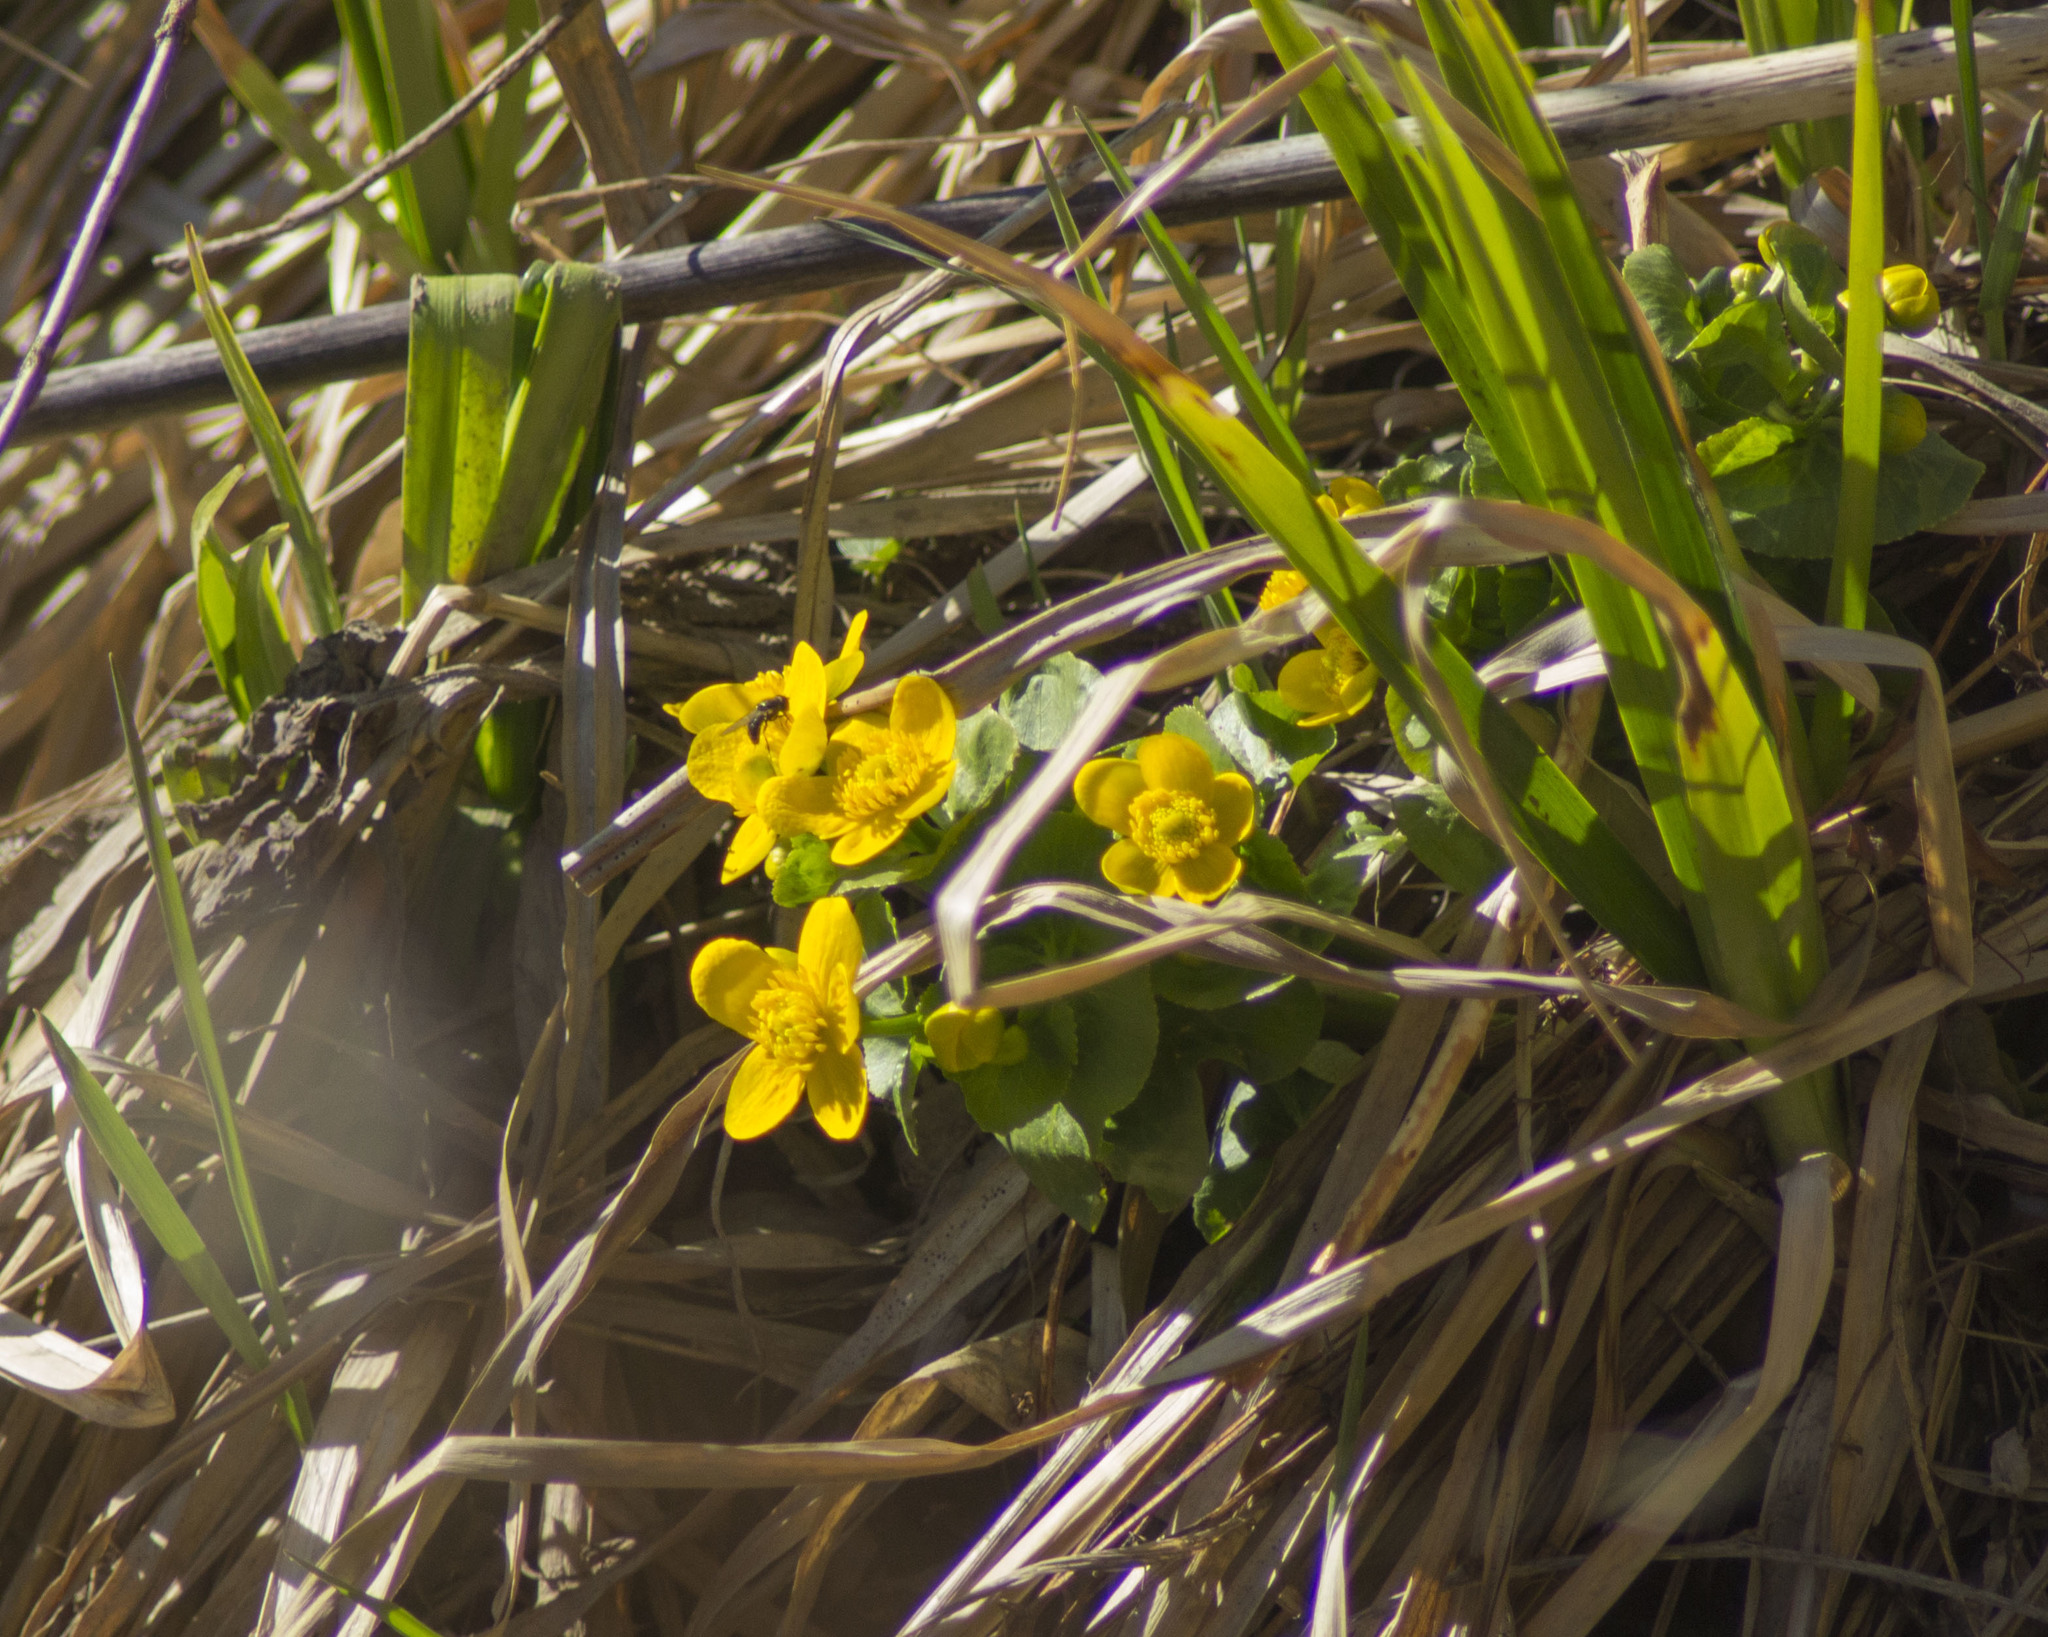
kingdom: Plantae
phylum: Tracheophyta
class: Magnoliopsida
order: Ranunculales
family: Ranunculaceae
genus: Caltha
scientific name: Caltha palustris
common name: Marsh marigold
